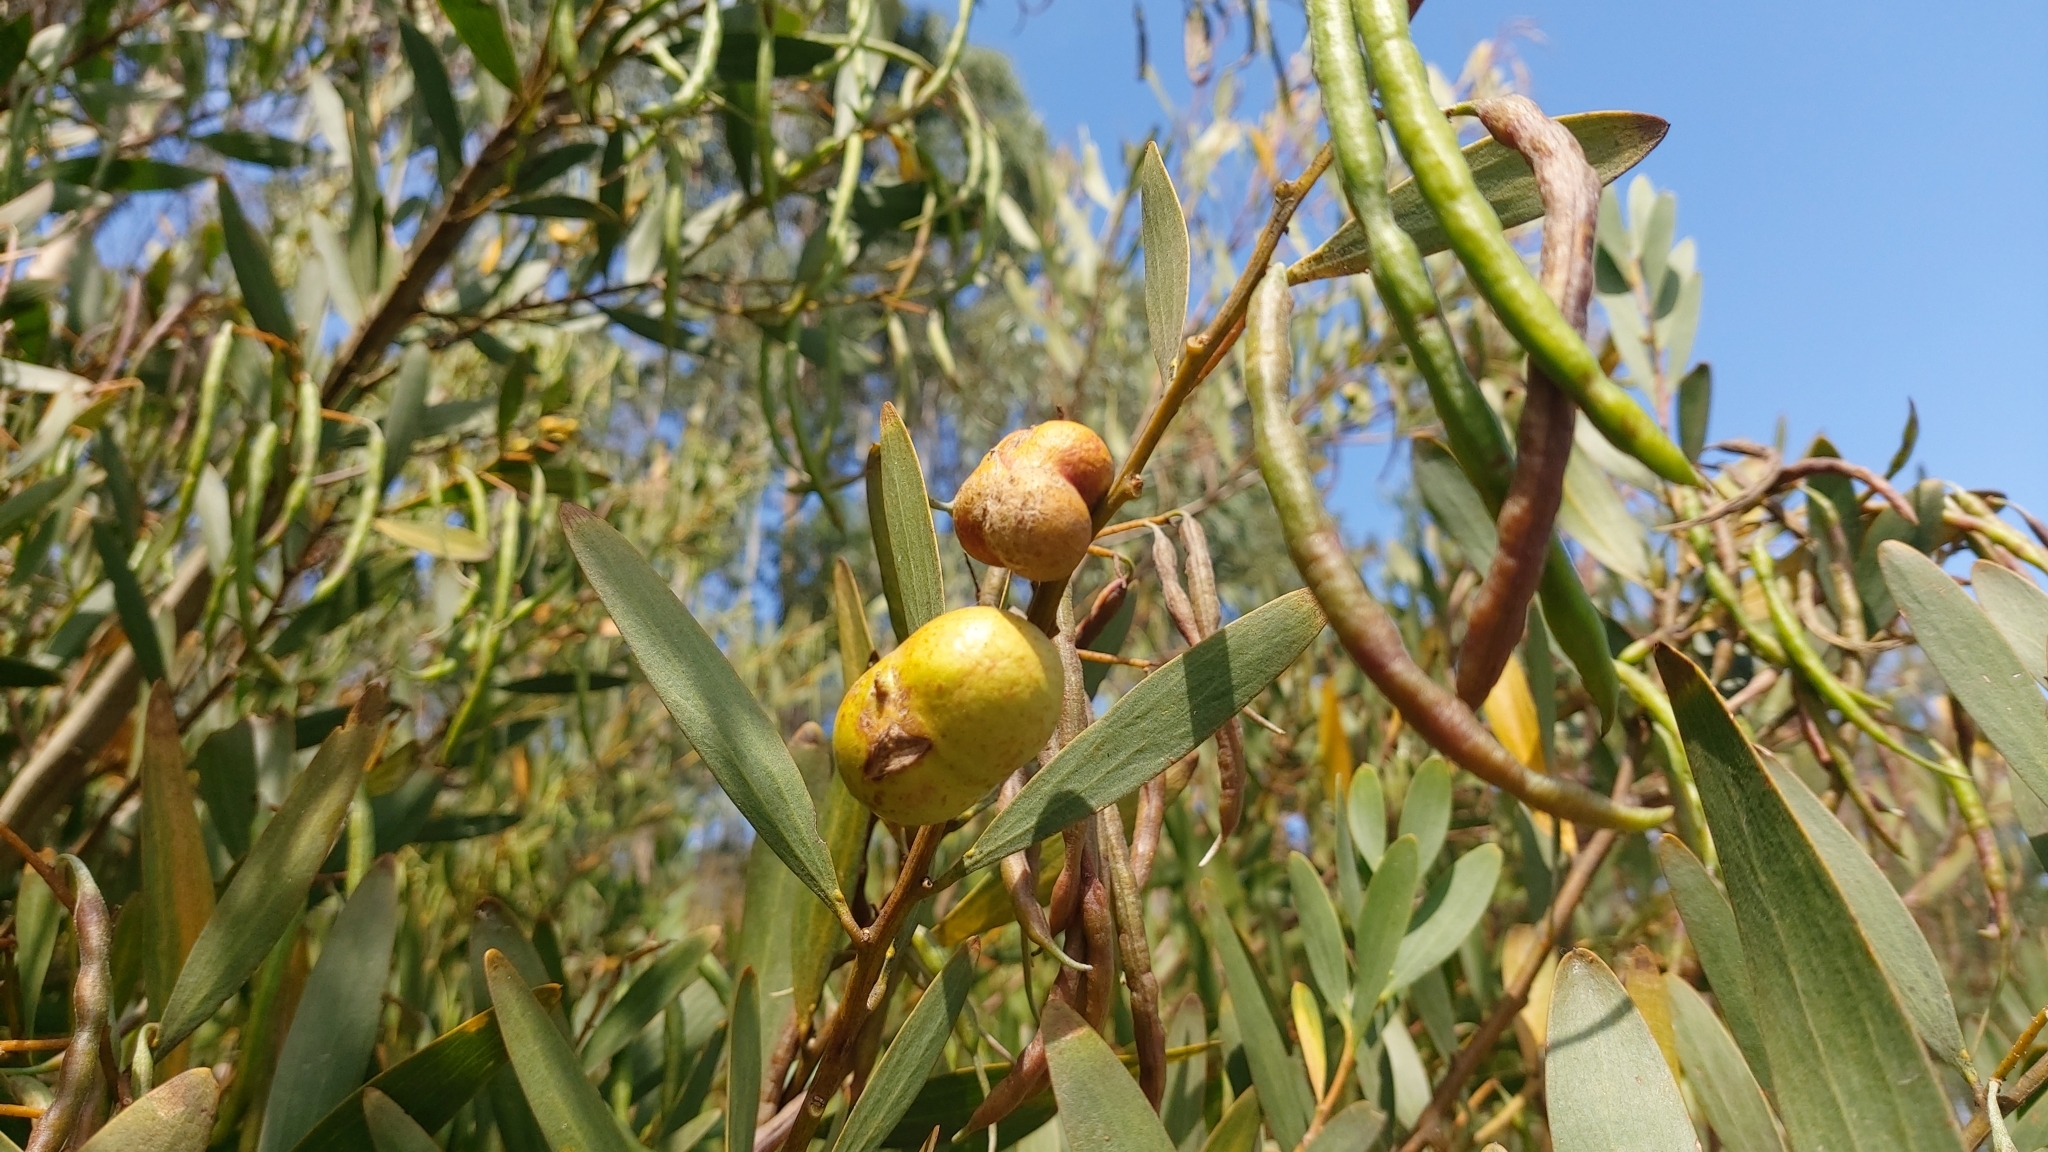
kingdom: Animalia
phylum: Arthropoda
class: Insecta
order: Hymenoptera
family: Pteromalidae
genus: Trichilogaster
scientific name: Trichilogaster acaciaelongifoliae
